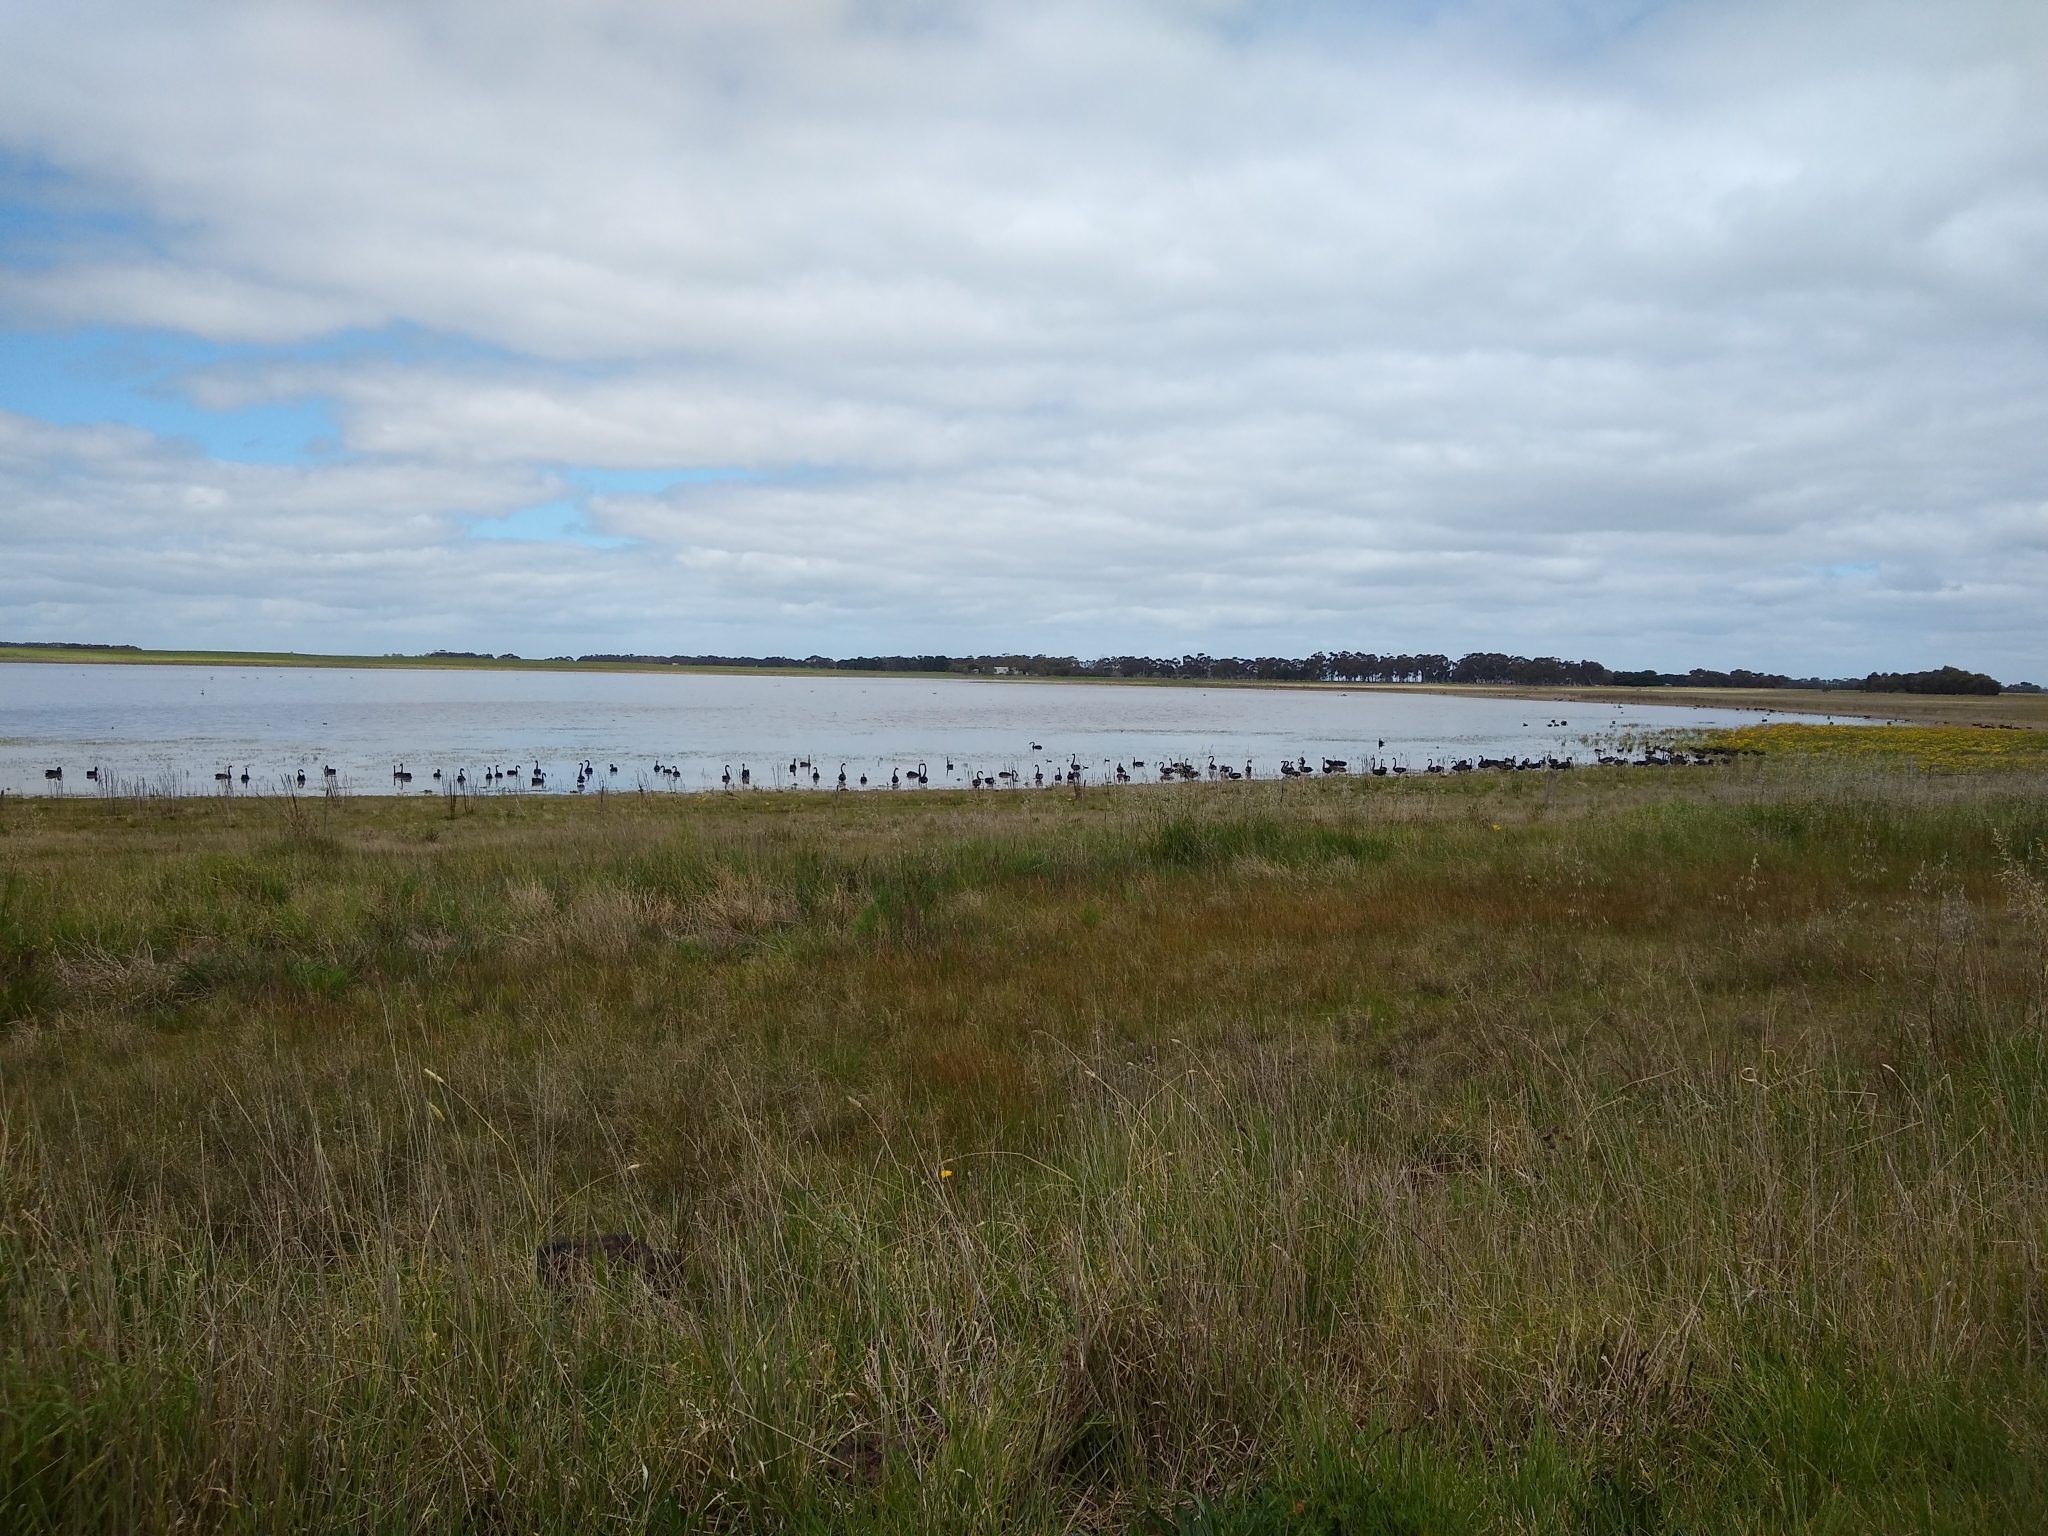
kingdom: Animalia
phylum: Chordata
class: Aves
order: Anseriformes
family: Anatidae
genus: Cygnus
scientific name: Cygnus atratus
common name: Black swan
